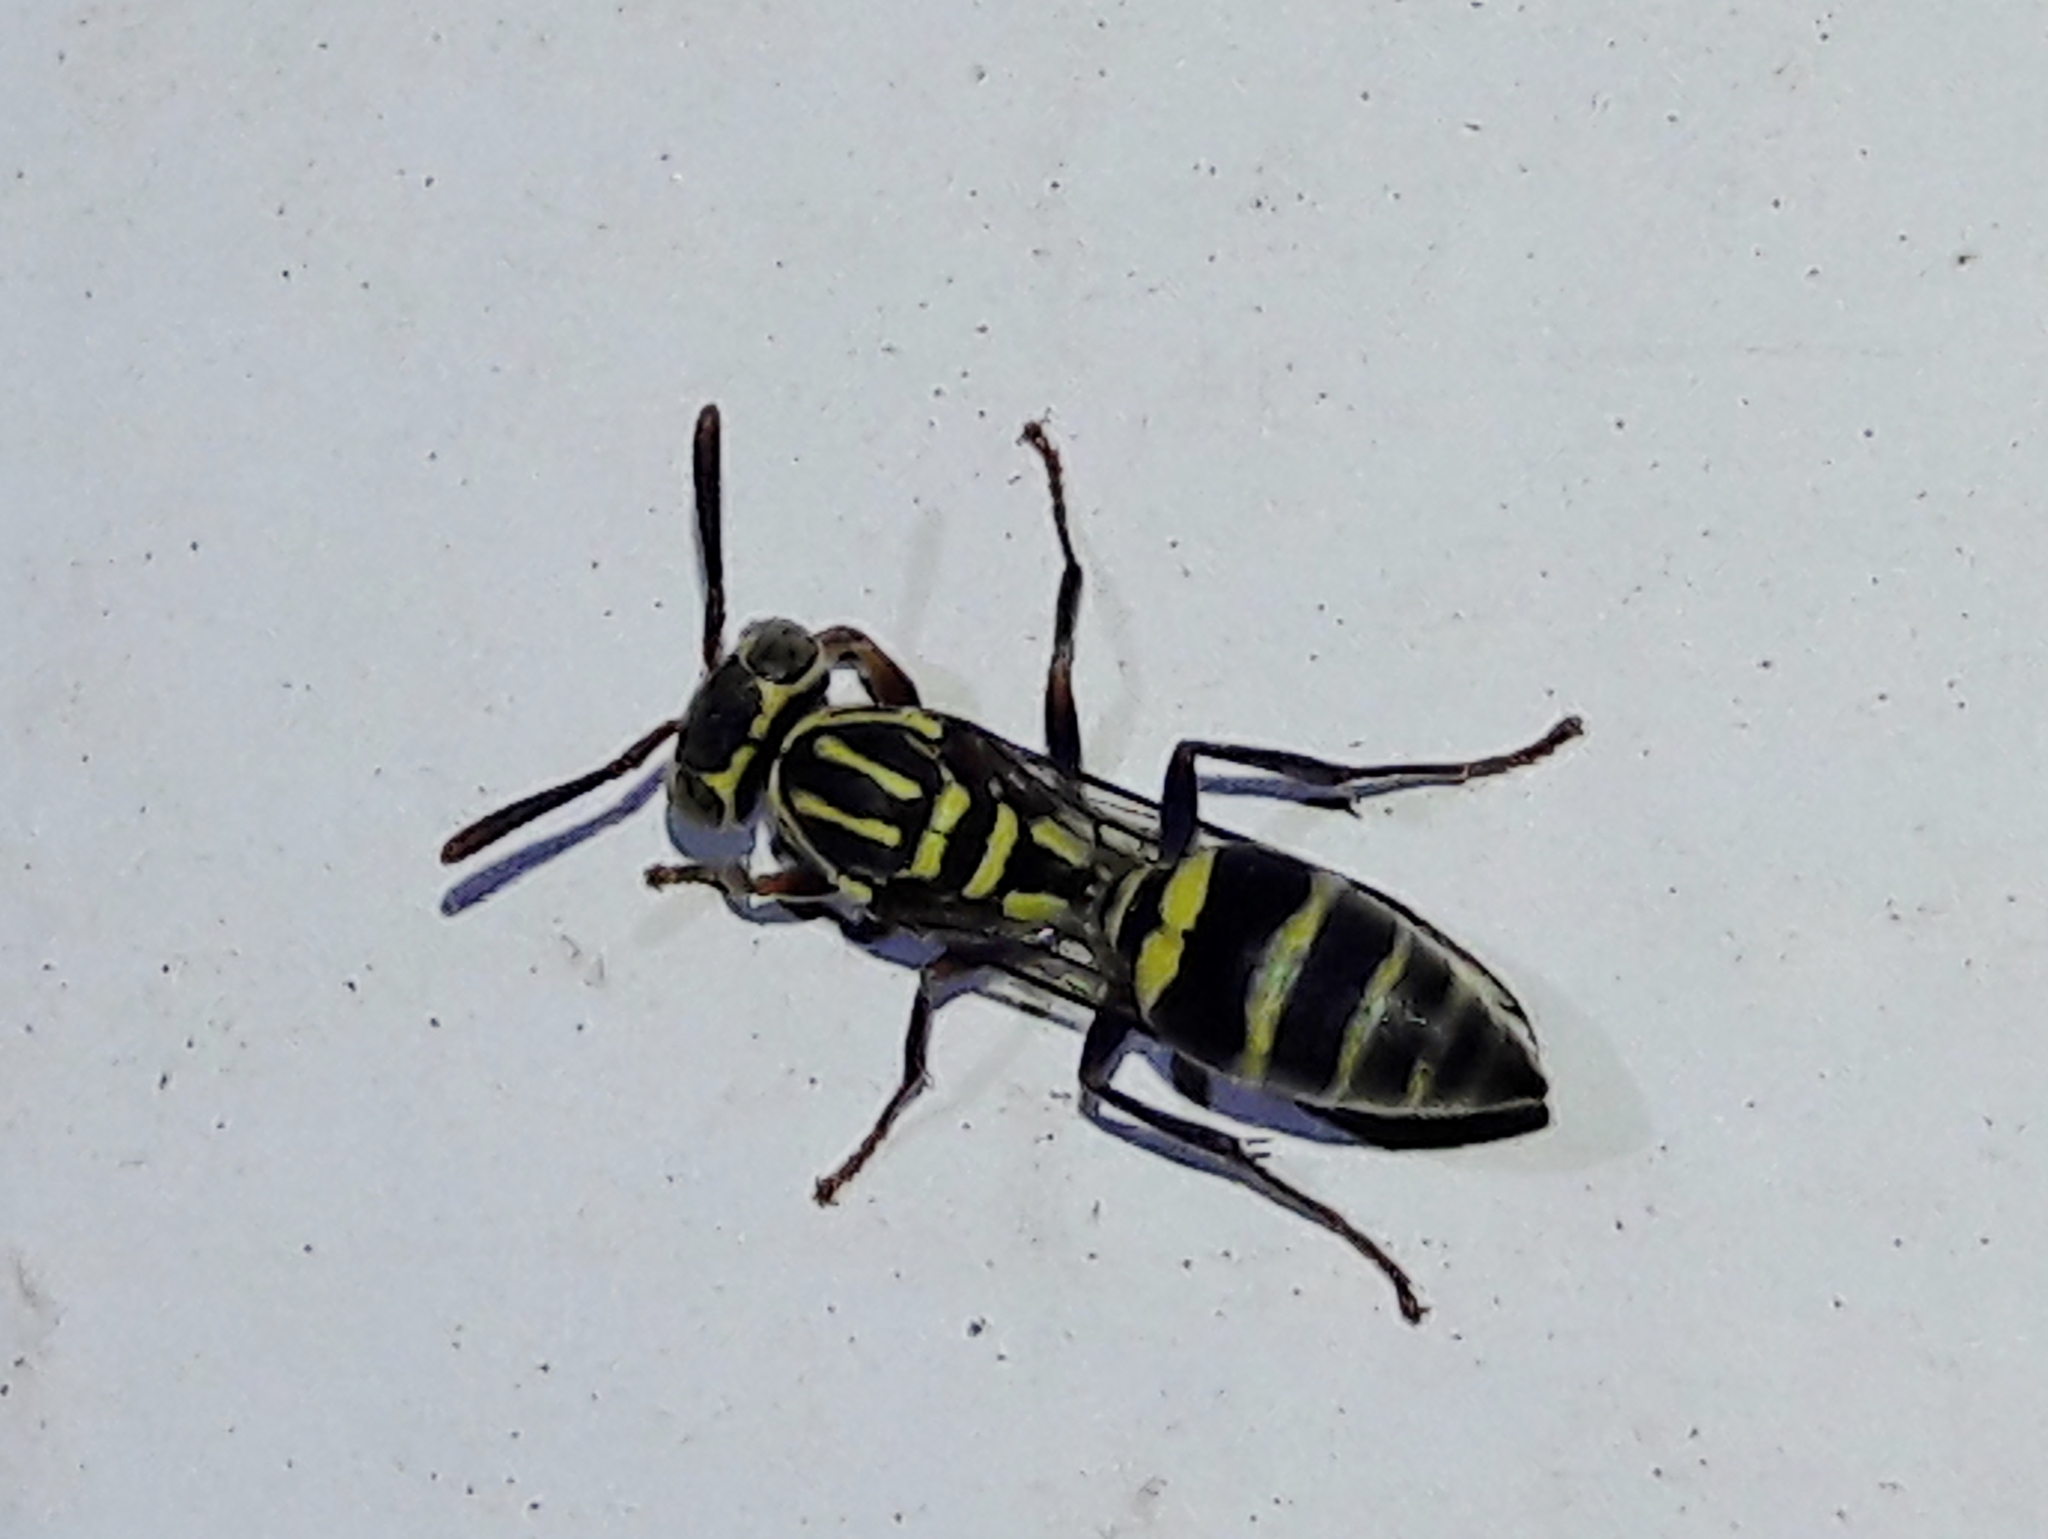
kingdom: Animalia
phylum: Arthropoda
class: Insecta
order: Hymenoptera
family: Vespidae
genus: Protopolybia
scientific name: Protopolybia exigua
